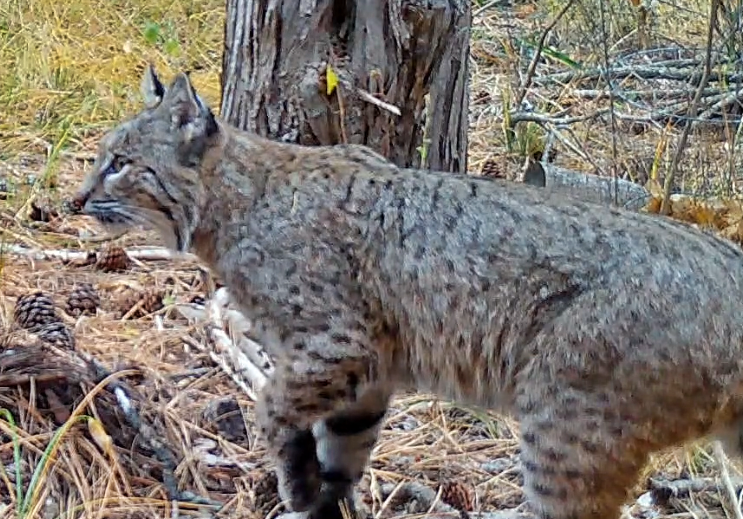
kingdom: Animalia
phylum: Chordata
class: Mammalia
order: Carnivora
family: Felidae
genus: Lynx
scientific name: Lynx rufus
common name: Bobcat
